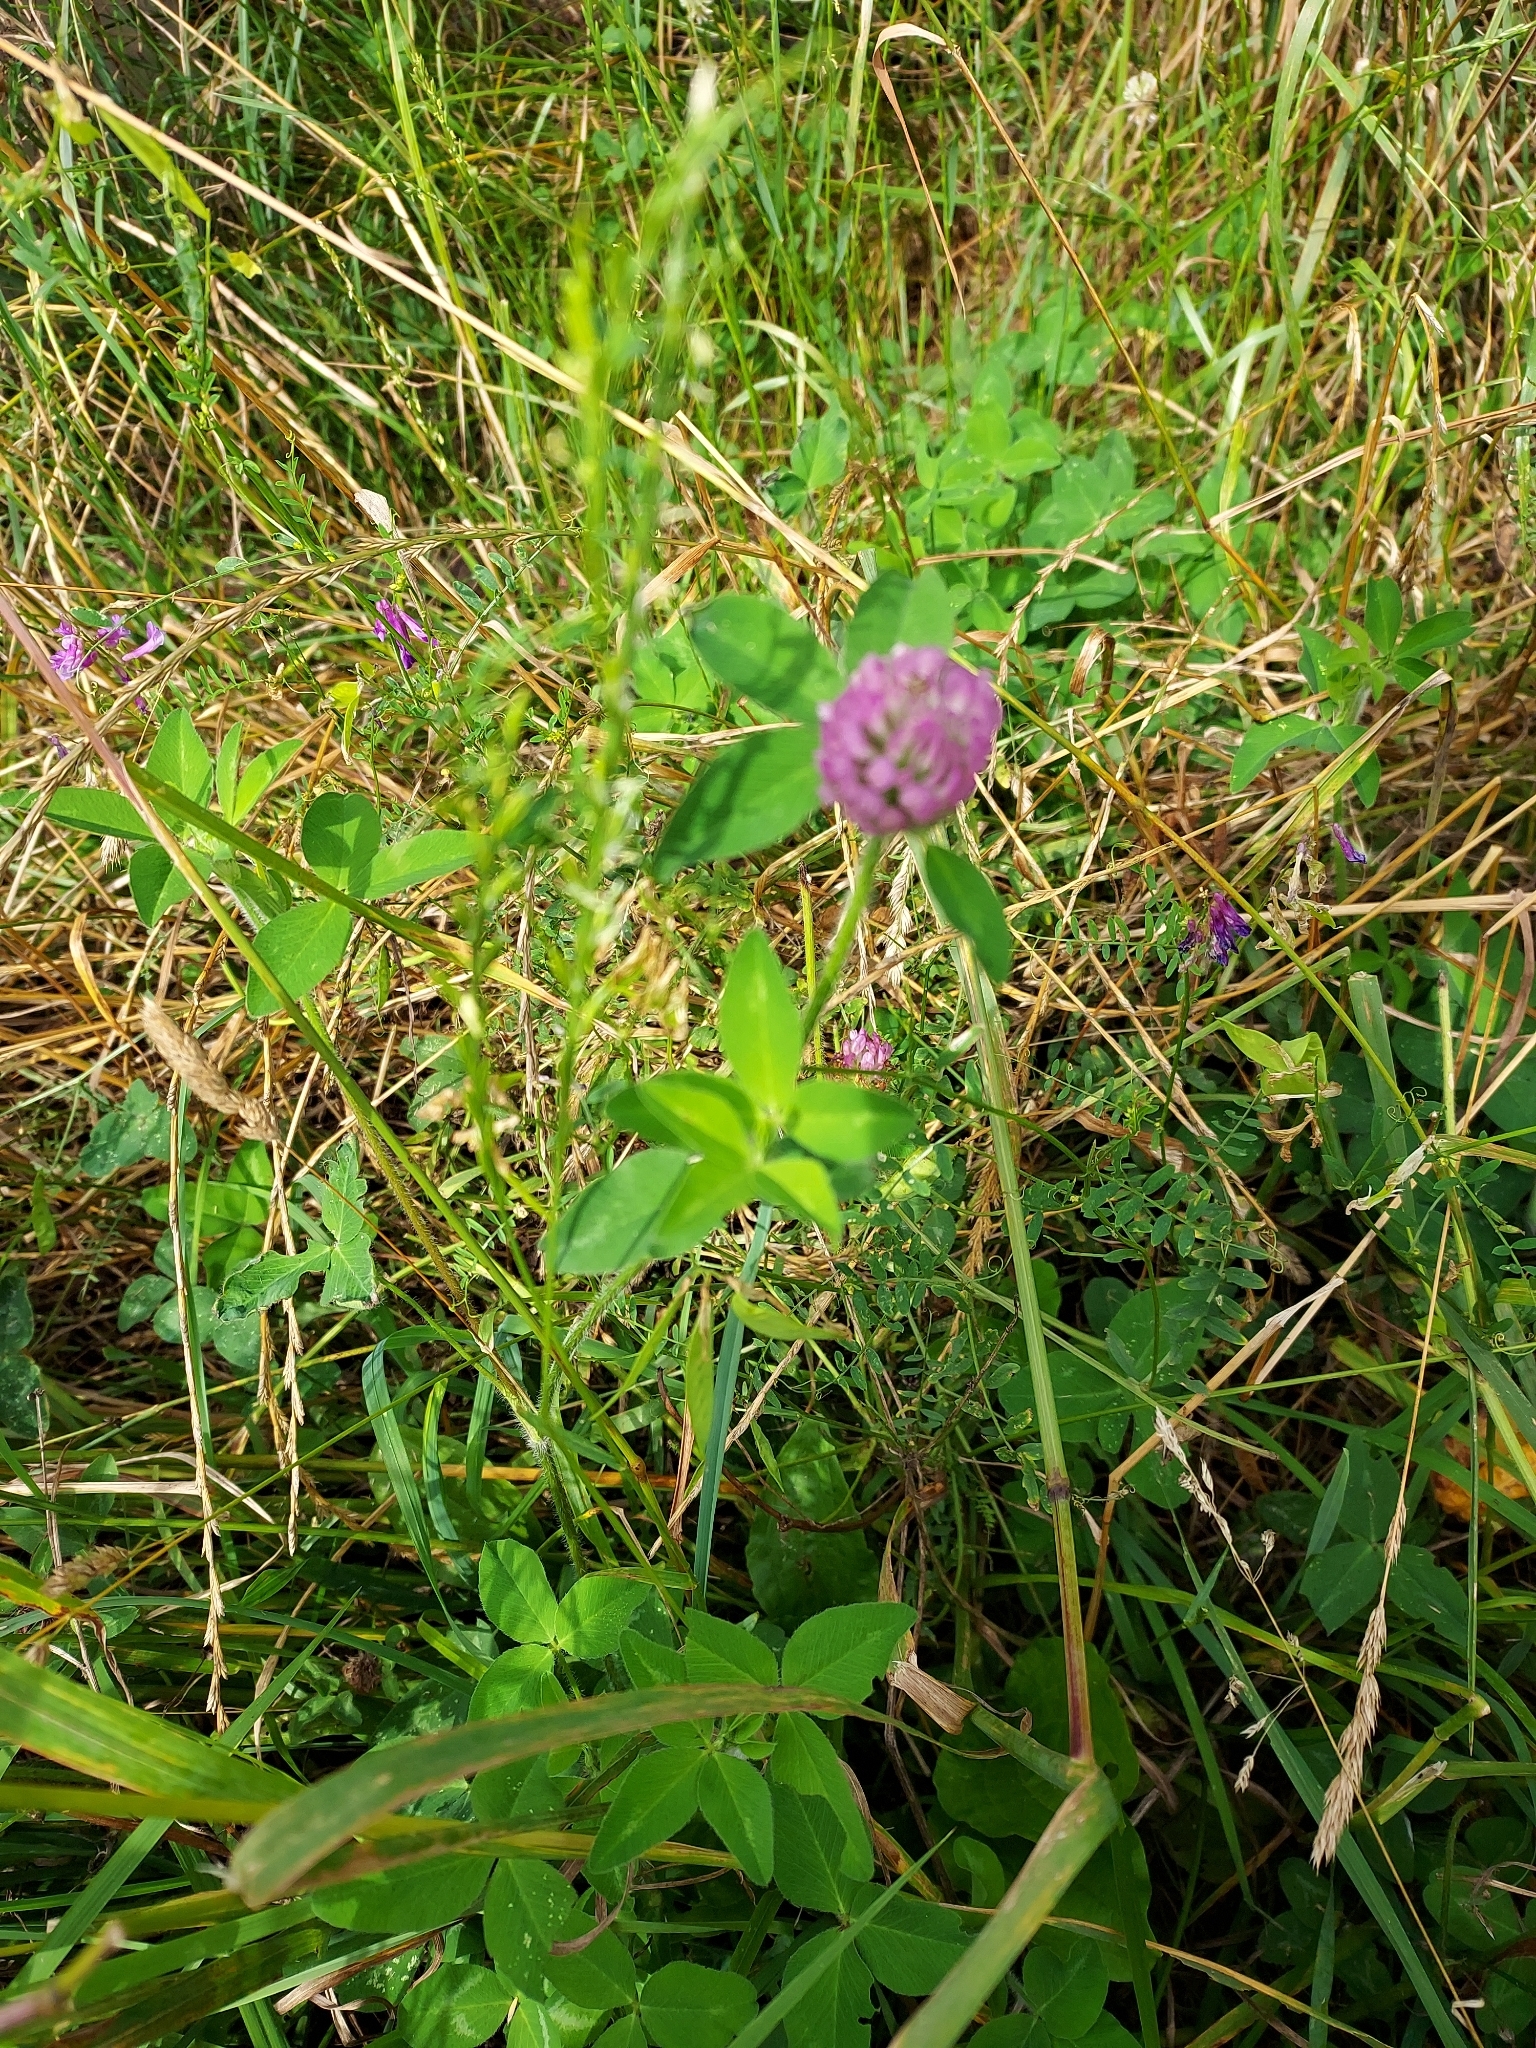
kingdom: Plantae
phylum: Tracheophyta
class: Magnoliopsida
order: Fabales
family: Fabaceae
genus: Trifolium
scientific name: Trifolium pratense
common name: Red clover
